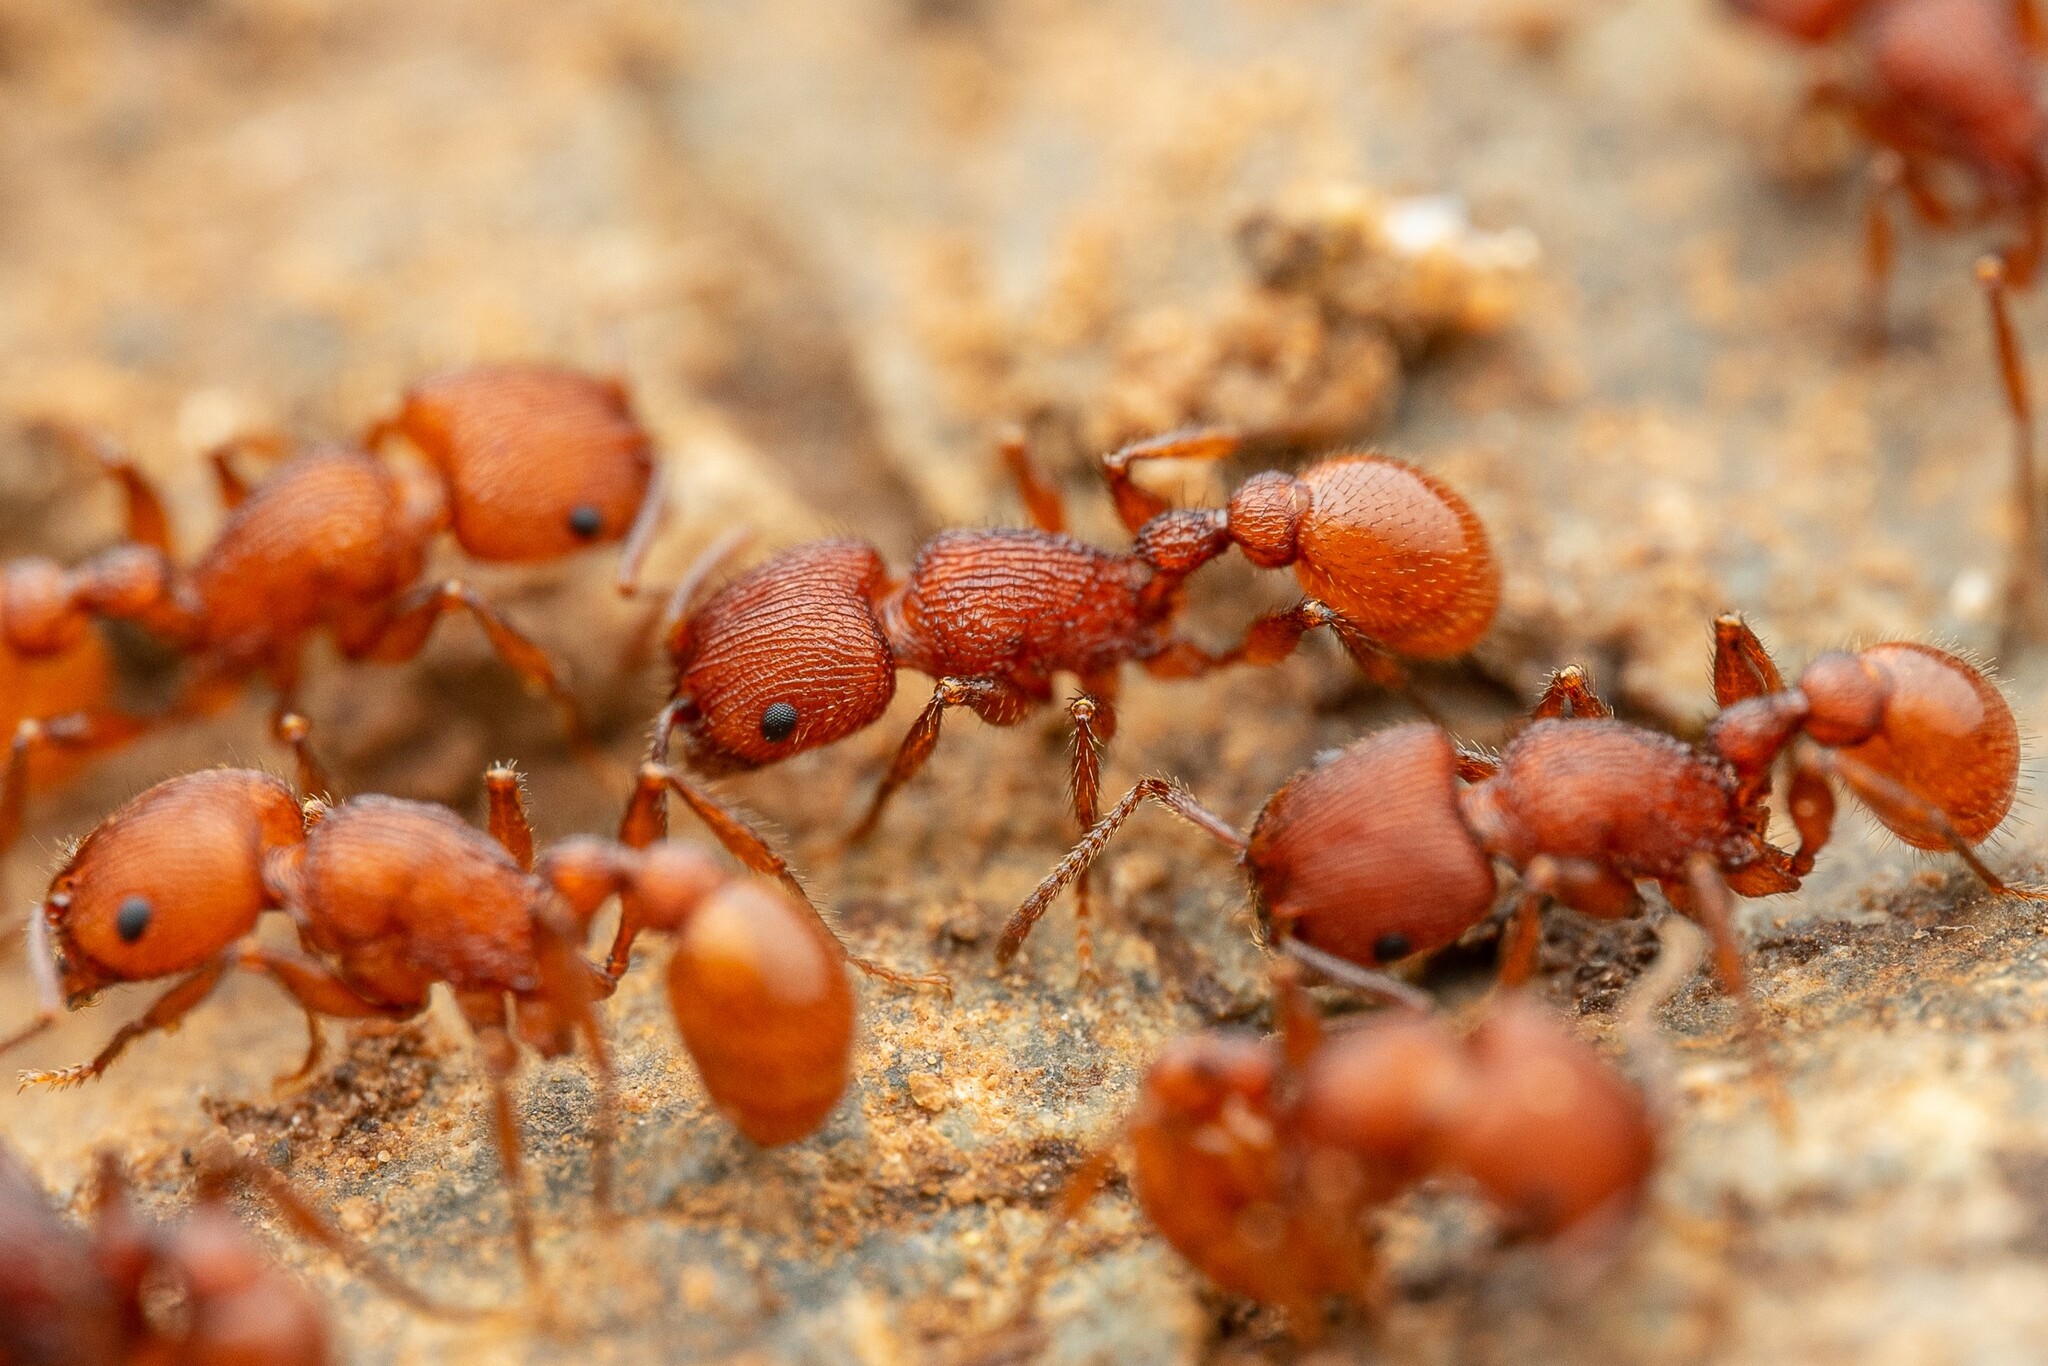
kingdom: Animalia
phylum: Arthropoda
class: Insecta
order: Hymenoptera
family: Formicidae
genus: Pogonomyrmex
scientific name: Pogonomyrmex imberbiculus
